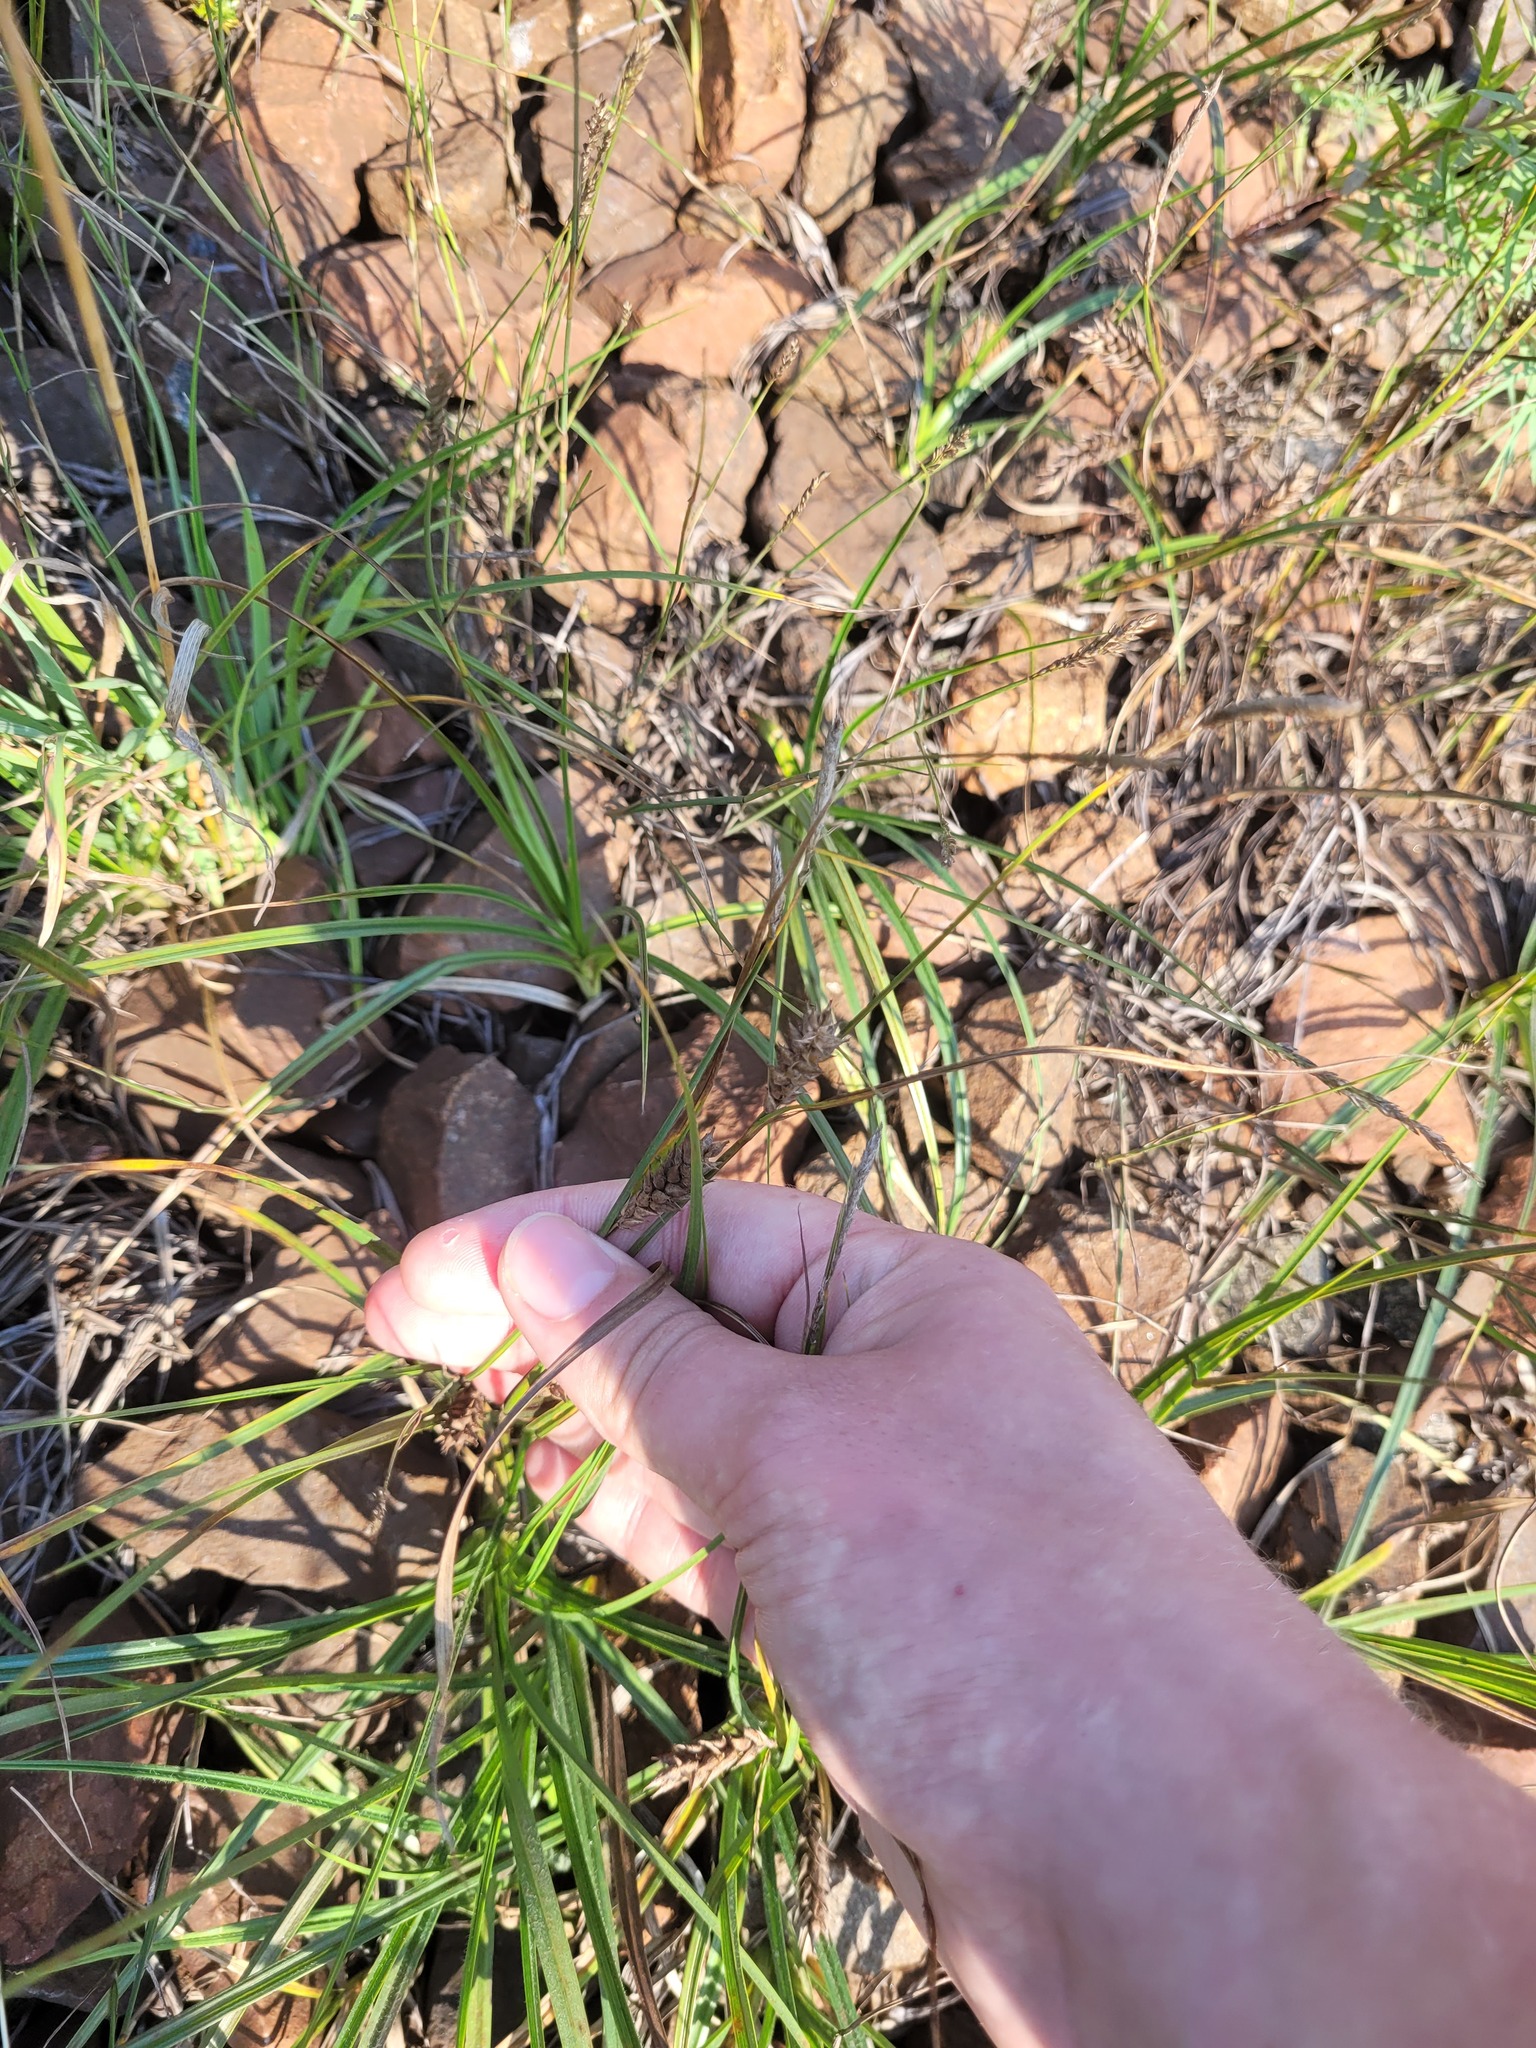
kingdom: Plantae
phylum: Tracheophyta
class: Liliopsida
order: Poales
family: Cyperaceae
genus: Carex
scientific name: Carex hirta
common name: Hairy sedge
